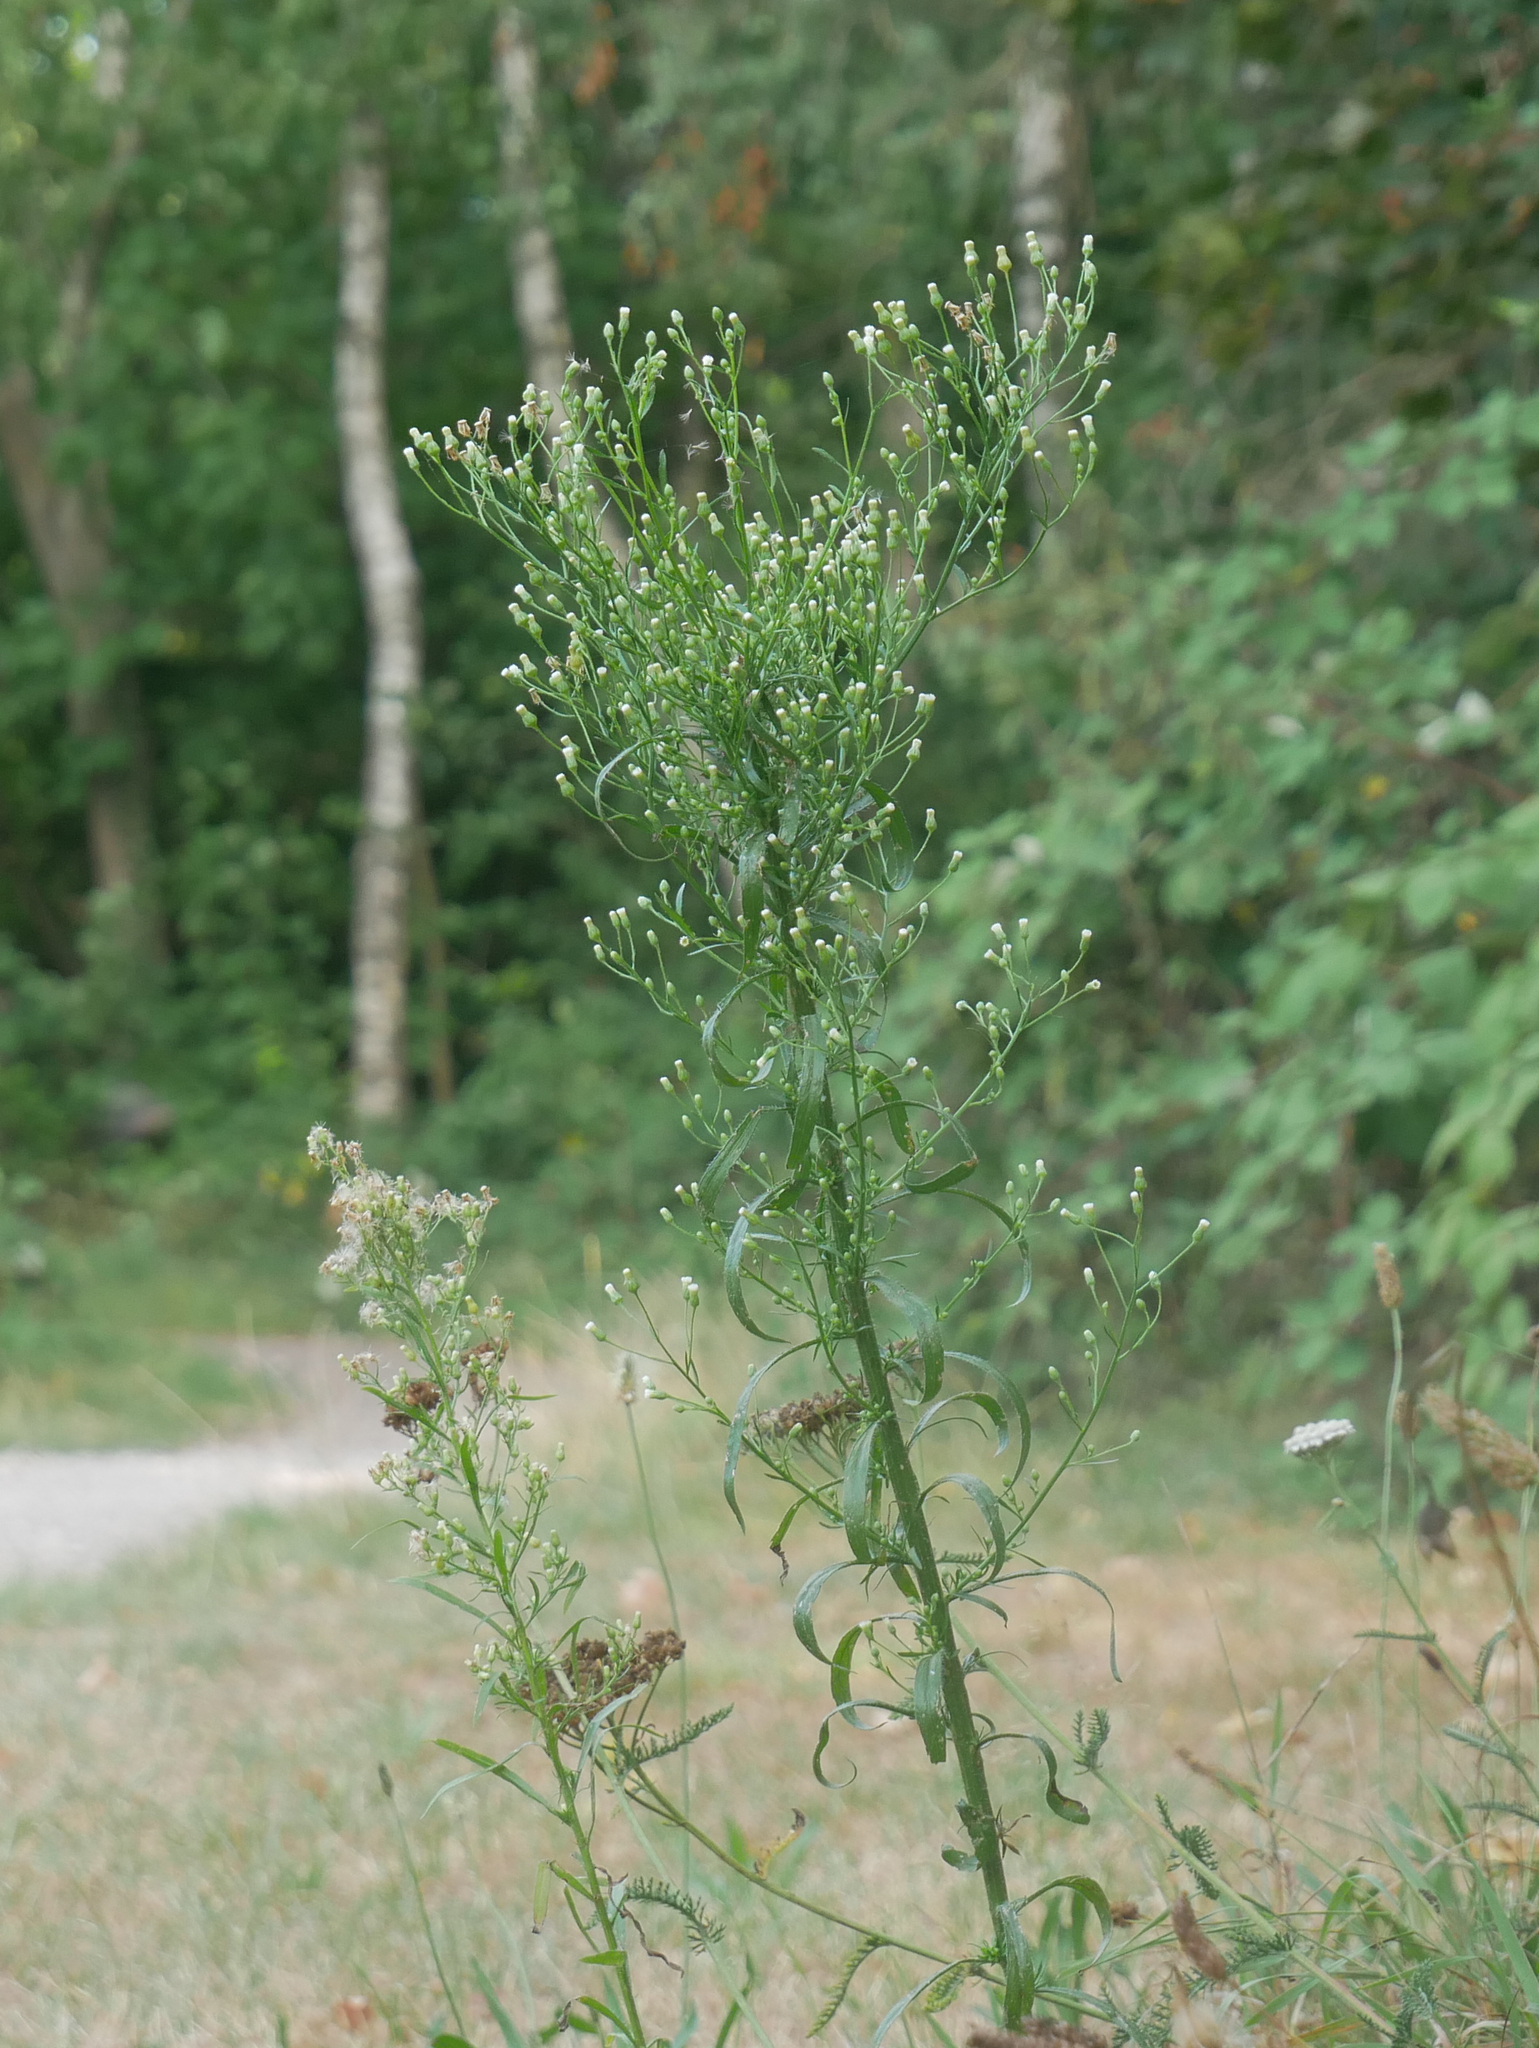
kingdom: Plantae
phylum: Tracheophyta
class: Magnoliopsida
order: Asterales
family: Asteraceae
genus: Erigeron
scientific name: Erigeron canadensis
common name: Canadian fleabane
